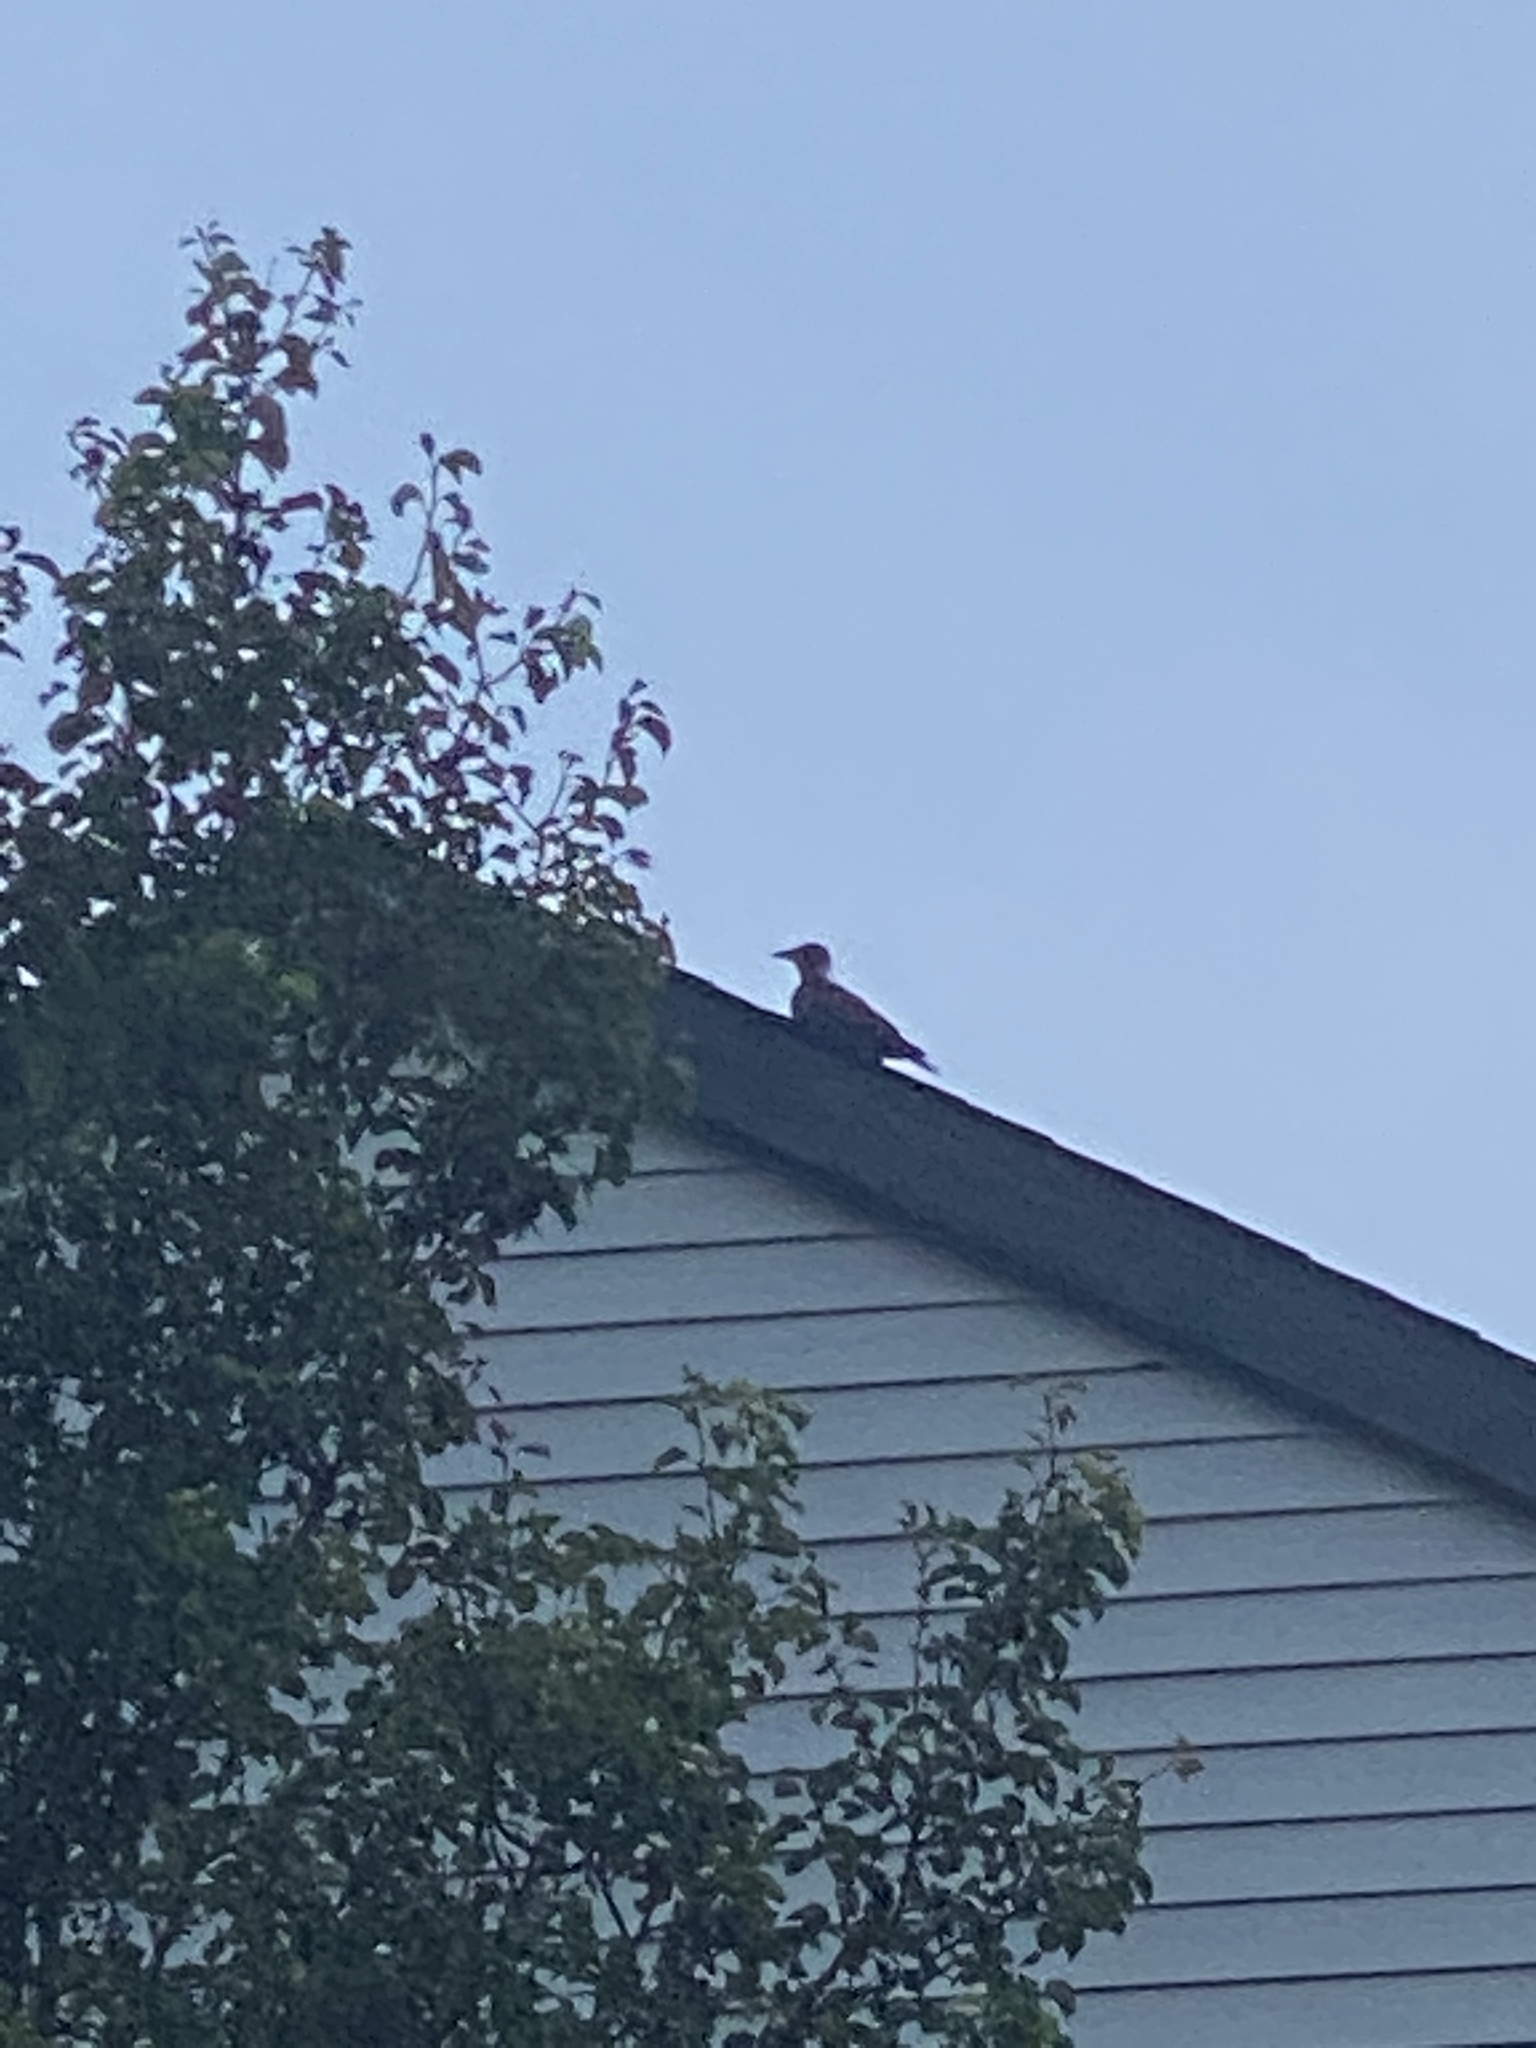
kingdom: Animalia
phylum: Chordata
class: Aves
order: Passeriformes
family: Corvidae
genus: Corvus
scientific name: Corvus brachyrhynchos
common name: American crow
